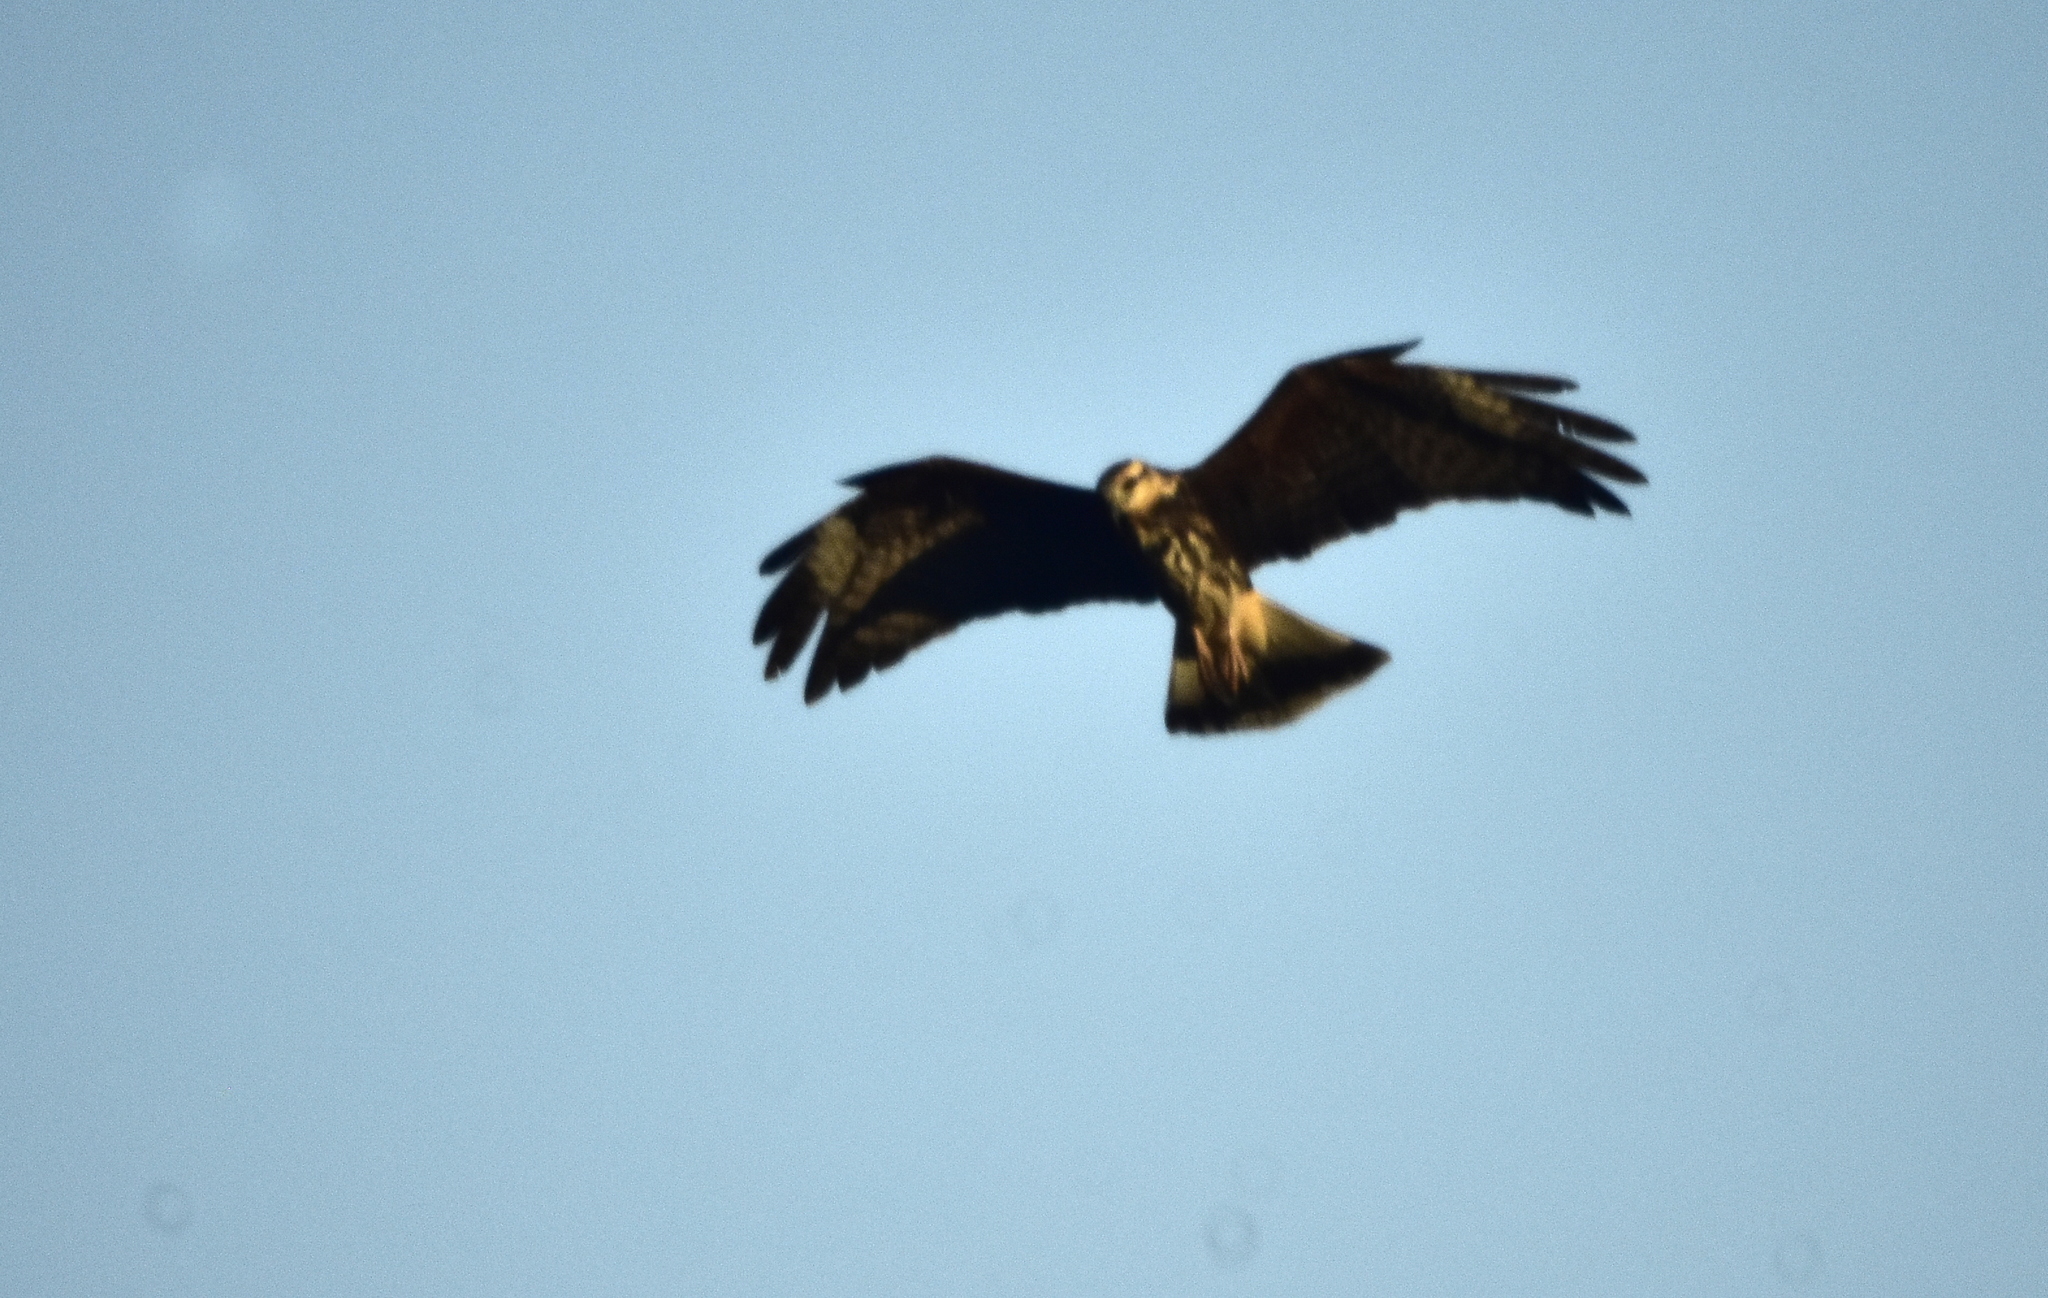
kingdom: Animalia
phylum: Chordata
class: Aves
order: Accipitriformes
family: Accipitridae
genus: Rostrhamus
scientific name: Rostrhamus sociabilis
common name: Snail kite
